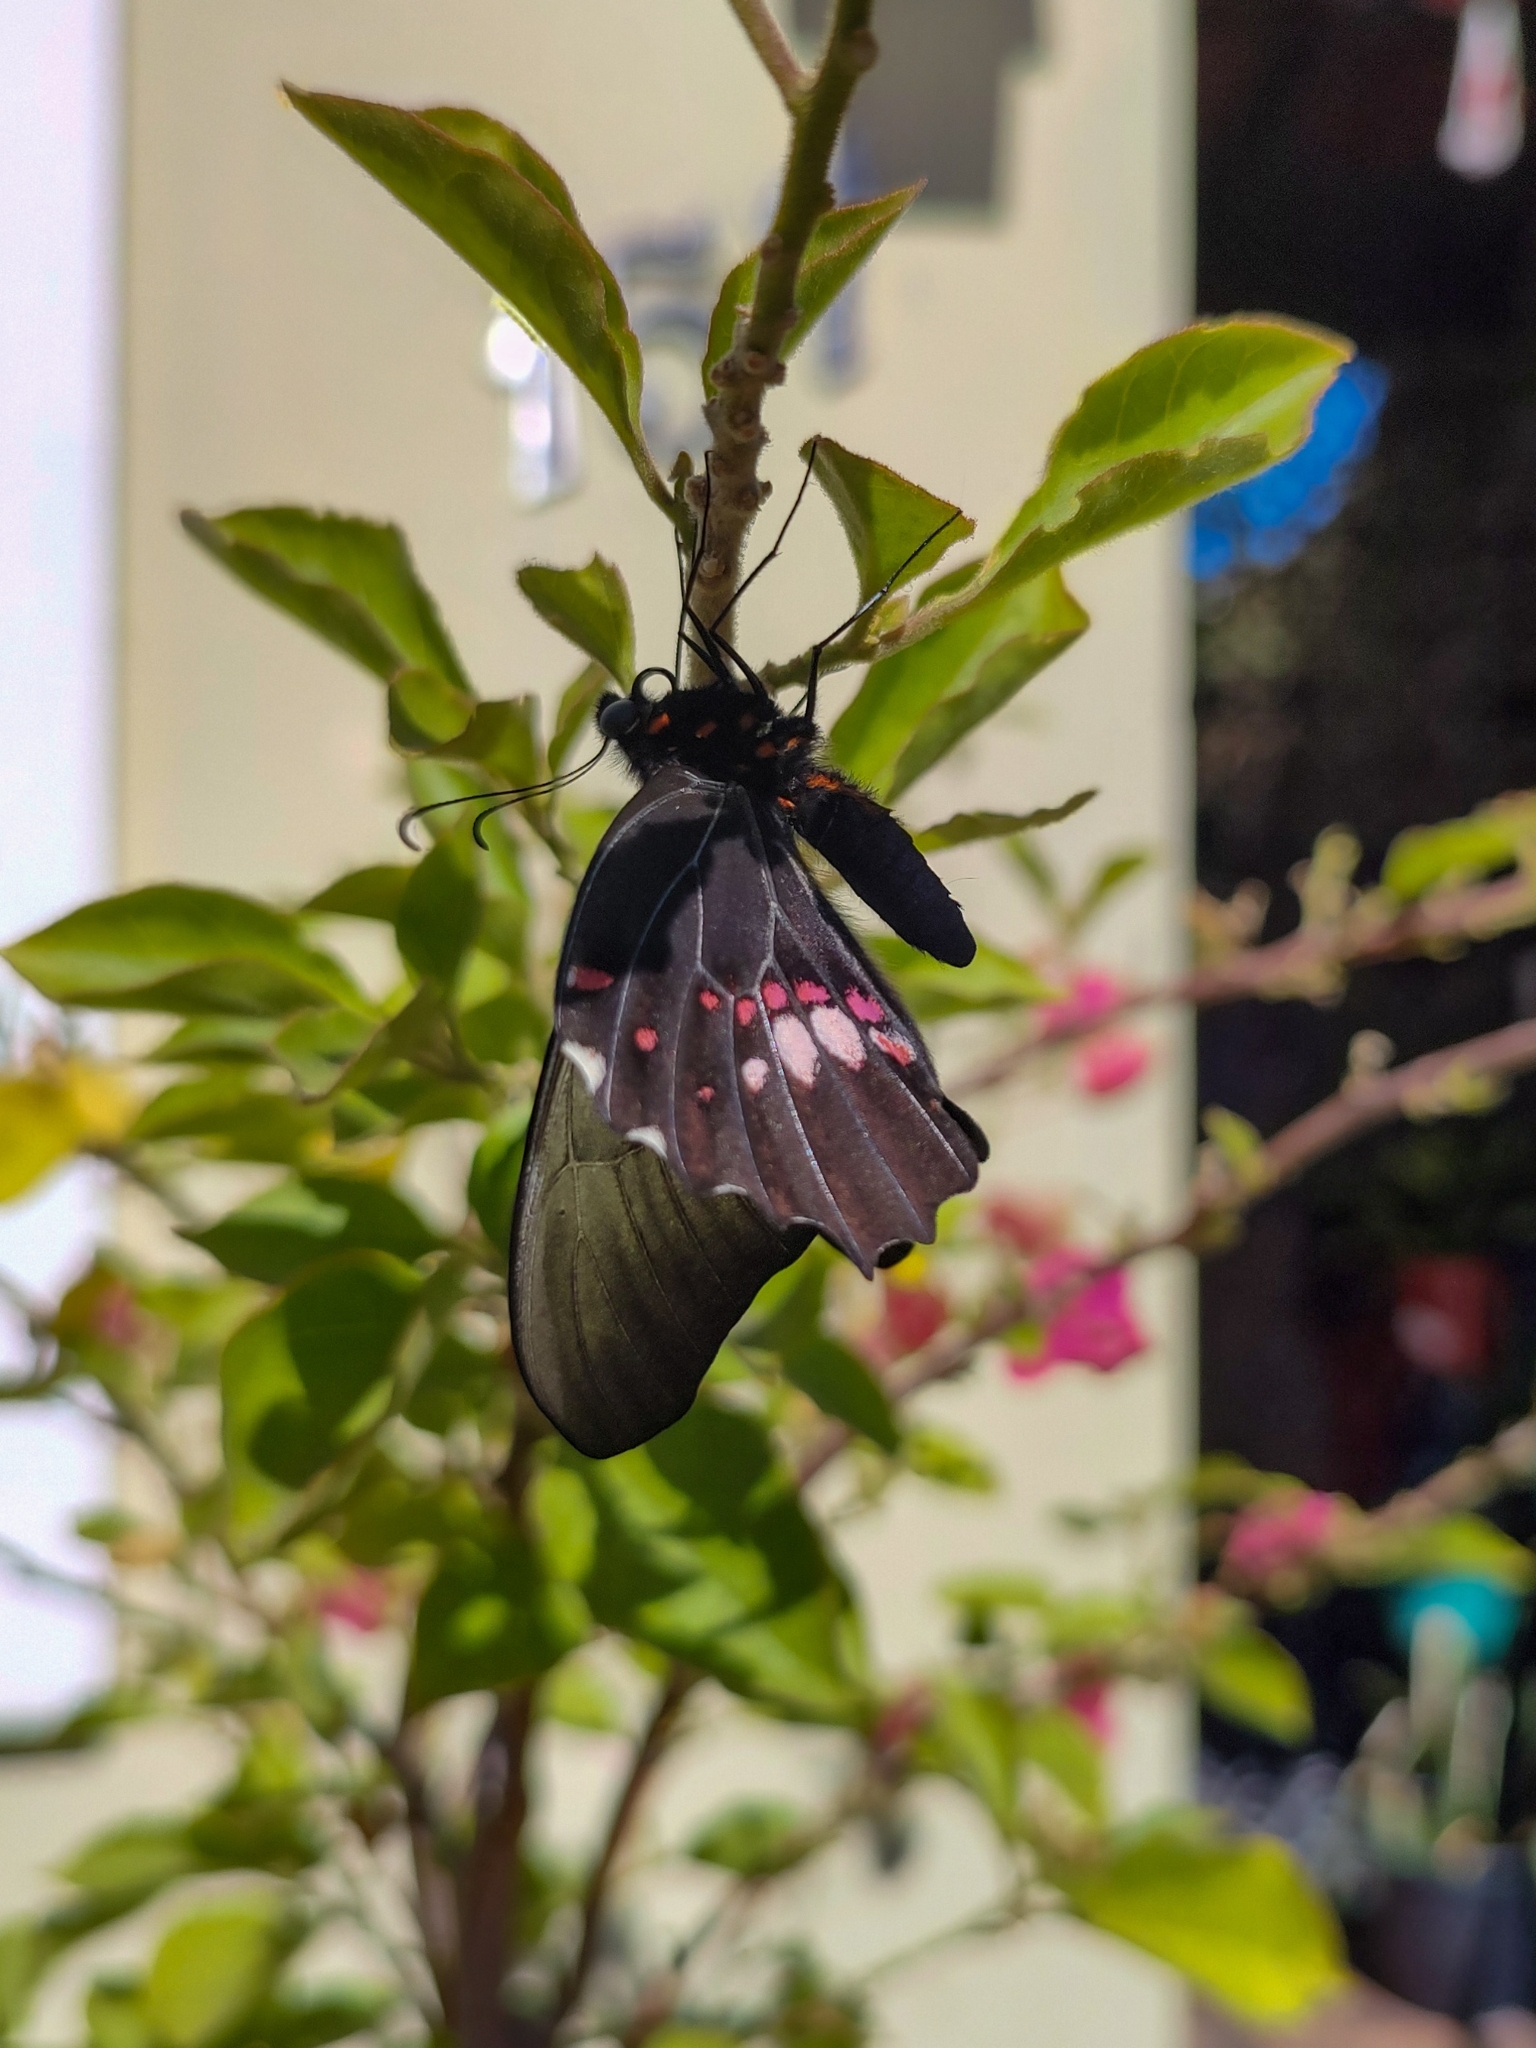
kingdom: Animalia
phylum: Arthropoda
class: Insecta
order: Lepidoptera
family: Papilionidae
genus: Papilio
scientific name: Papilio anchisiades
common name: Idaes swallowtail
